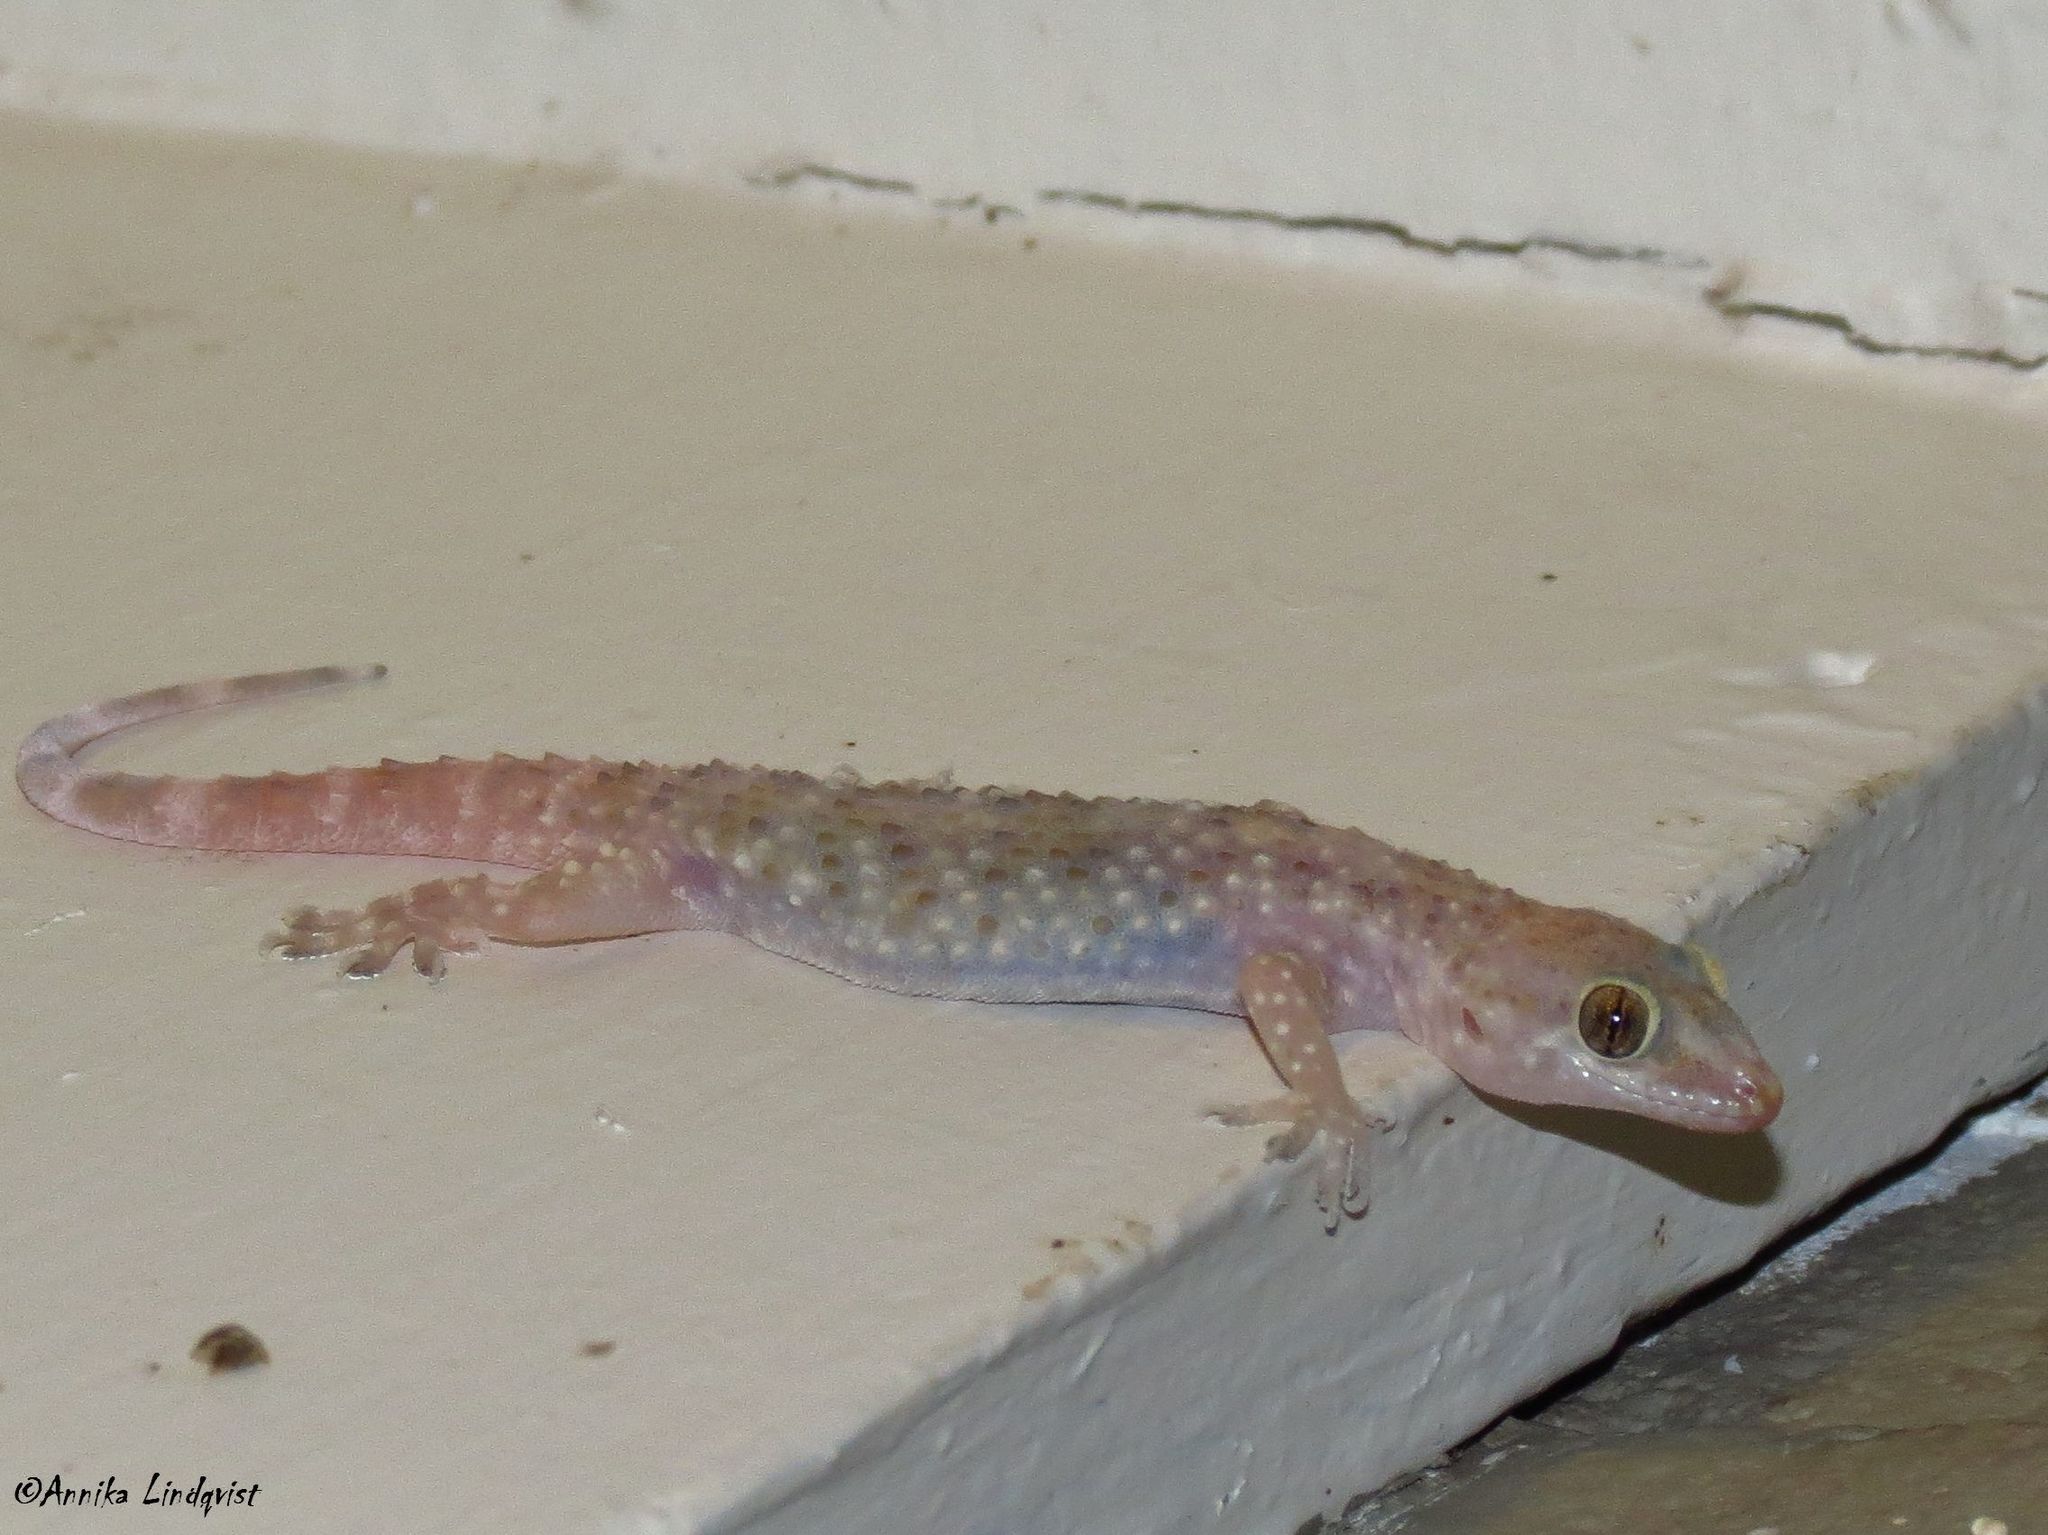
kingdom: Animalia
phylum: Chordata
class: Squamata
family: Gekkonidae
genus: Hemidactylus
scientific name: Hemidactylus turcicus
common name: Turkish gecko
